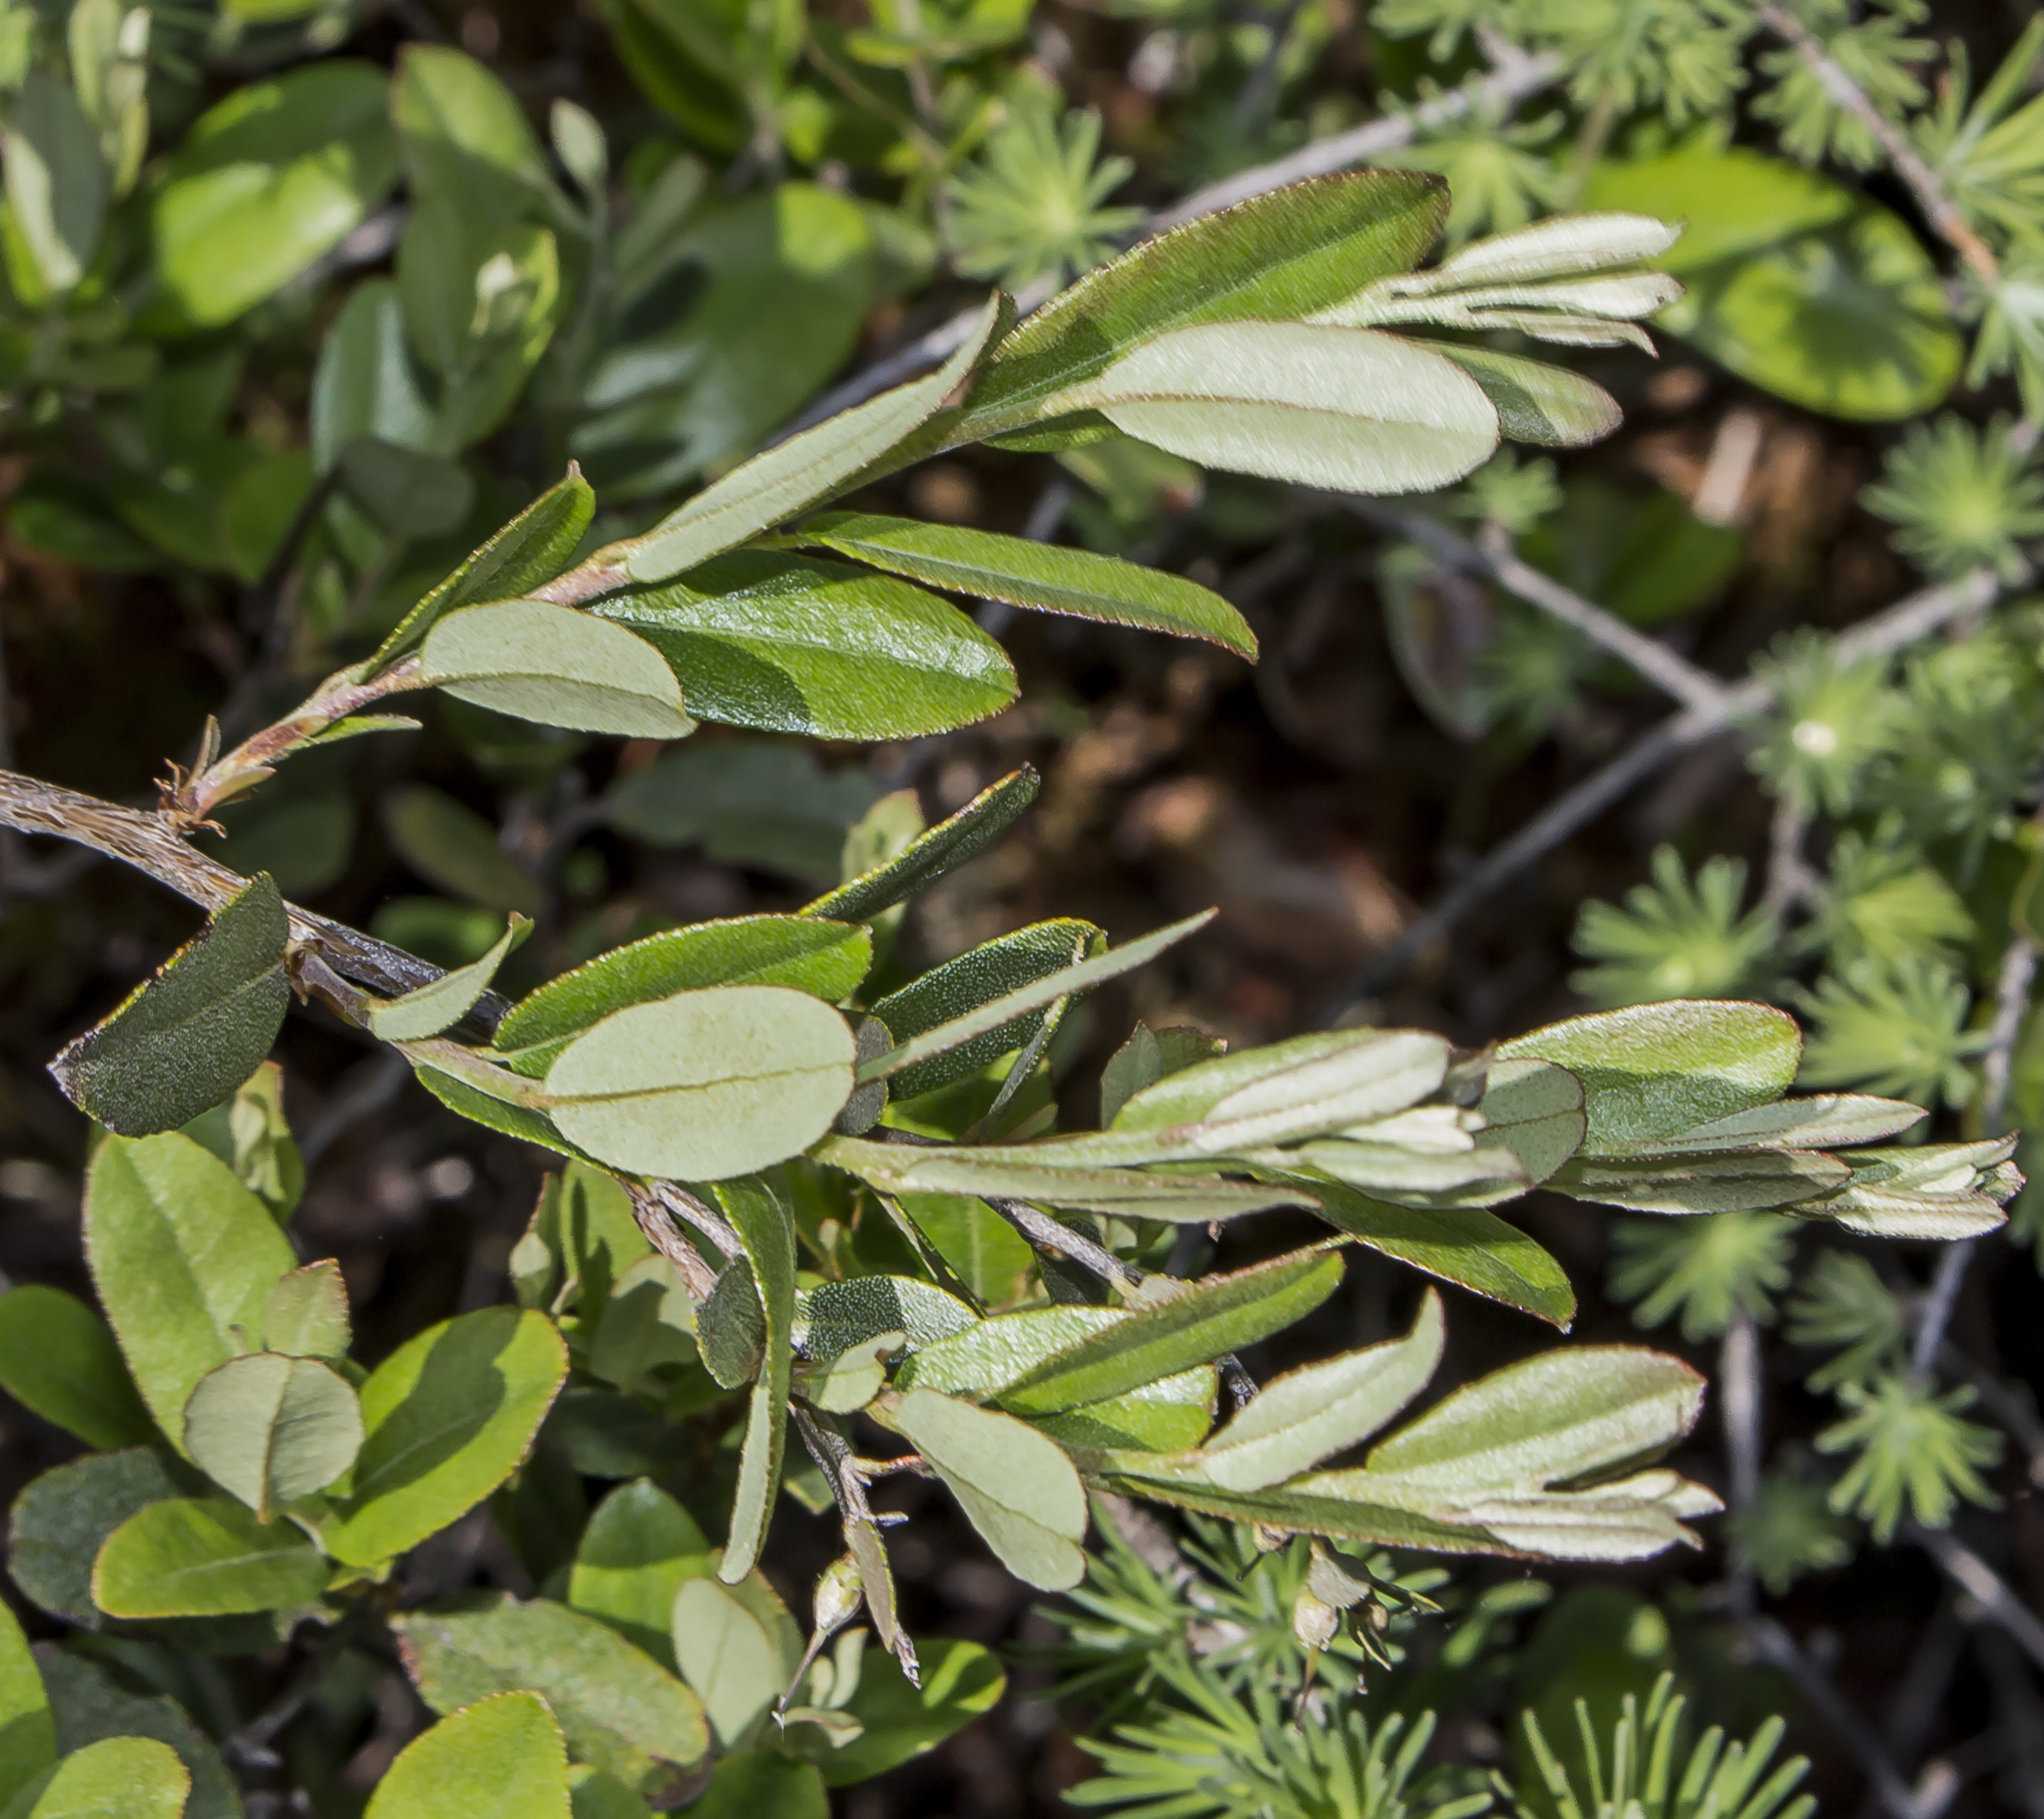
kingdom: Plantae
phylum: Tracheophyta
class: Magnoliopsida
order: Ericales
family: Ericaceae
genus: Chamaedaphne
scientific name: Chamaedaphne calyculata
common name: Leatherleaf
